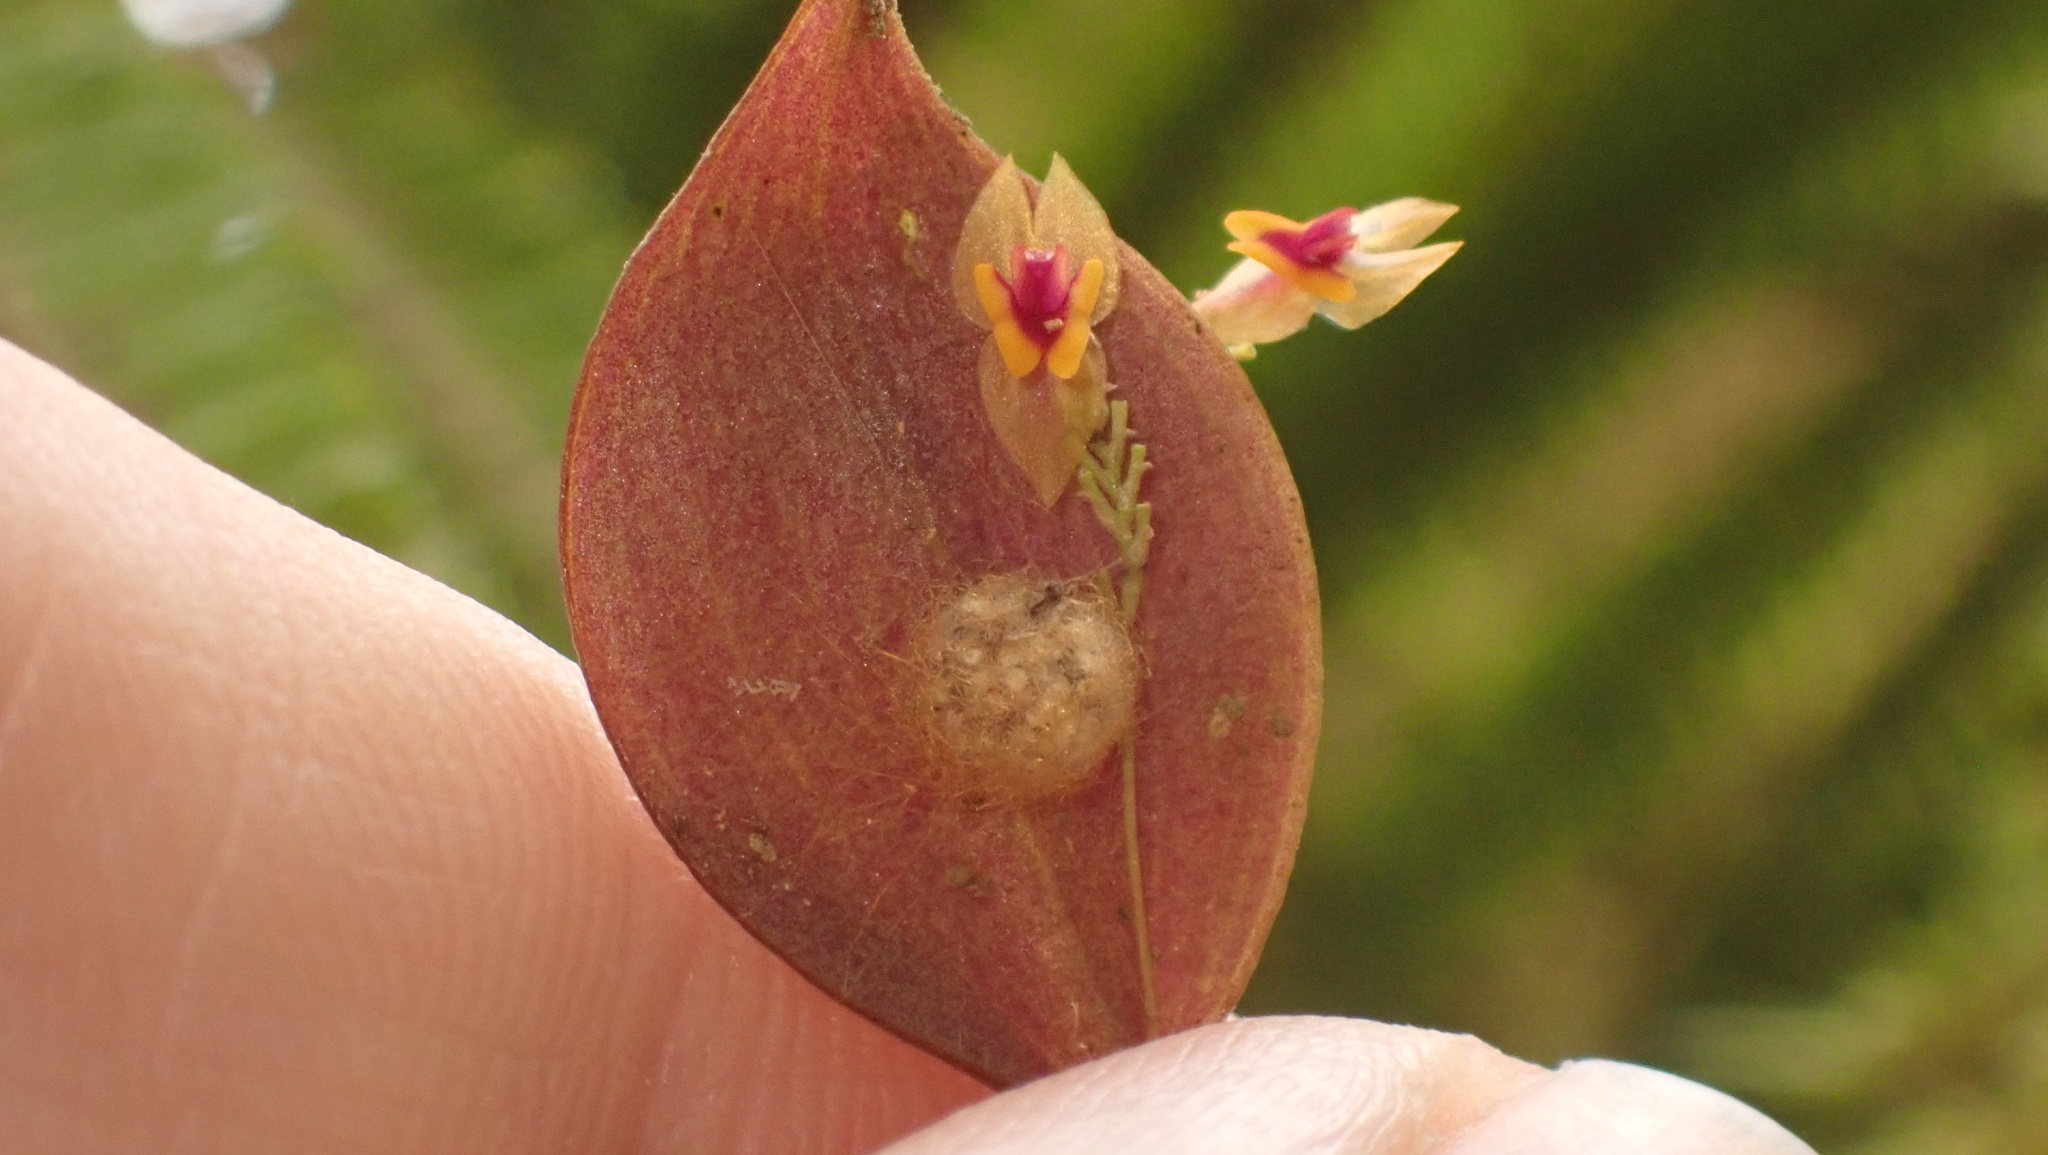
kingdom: Plantae
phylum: Tracheophyta
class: Liliopsida
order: Asparagales
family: Orchidaceae
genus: Lepanthes
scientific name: Lepanthes woodburyana
